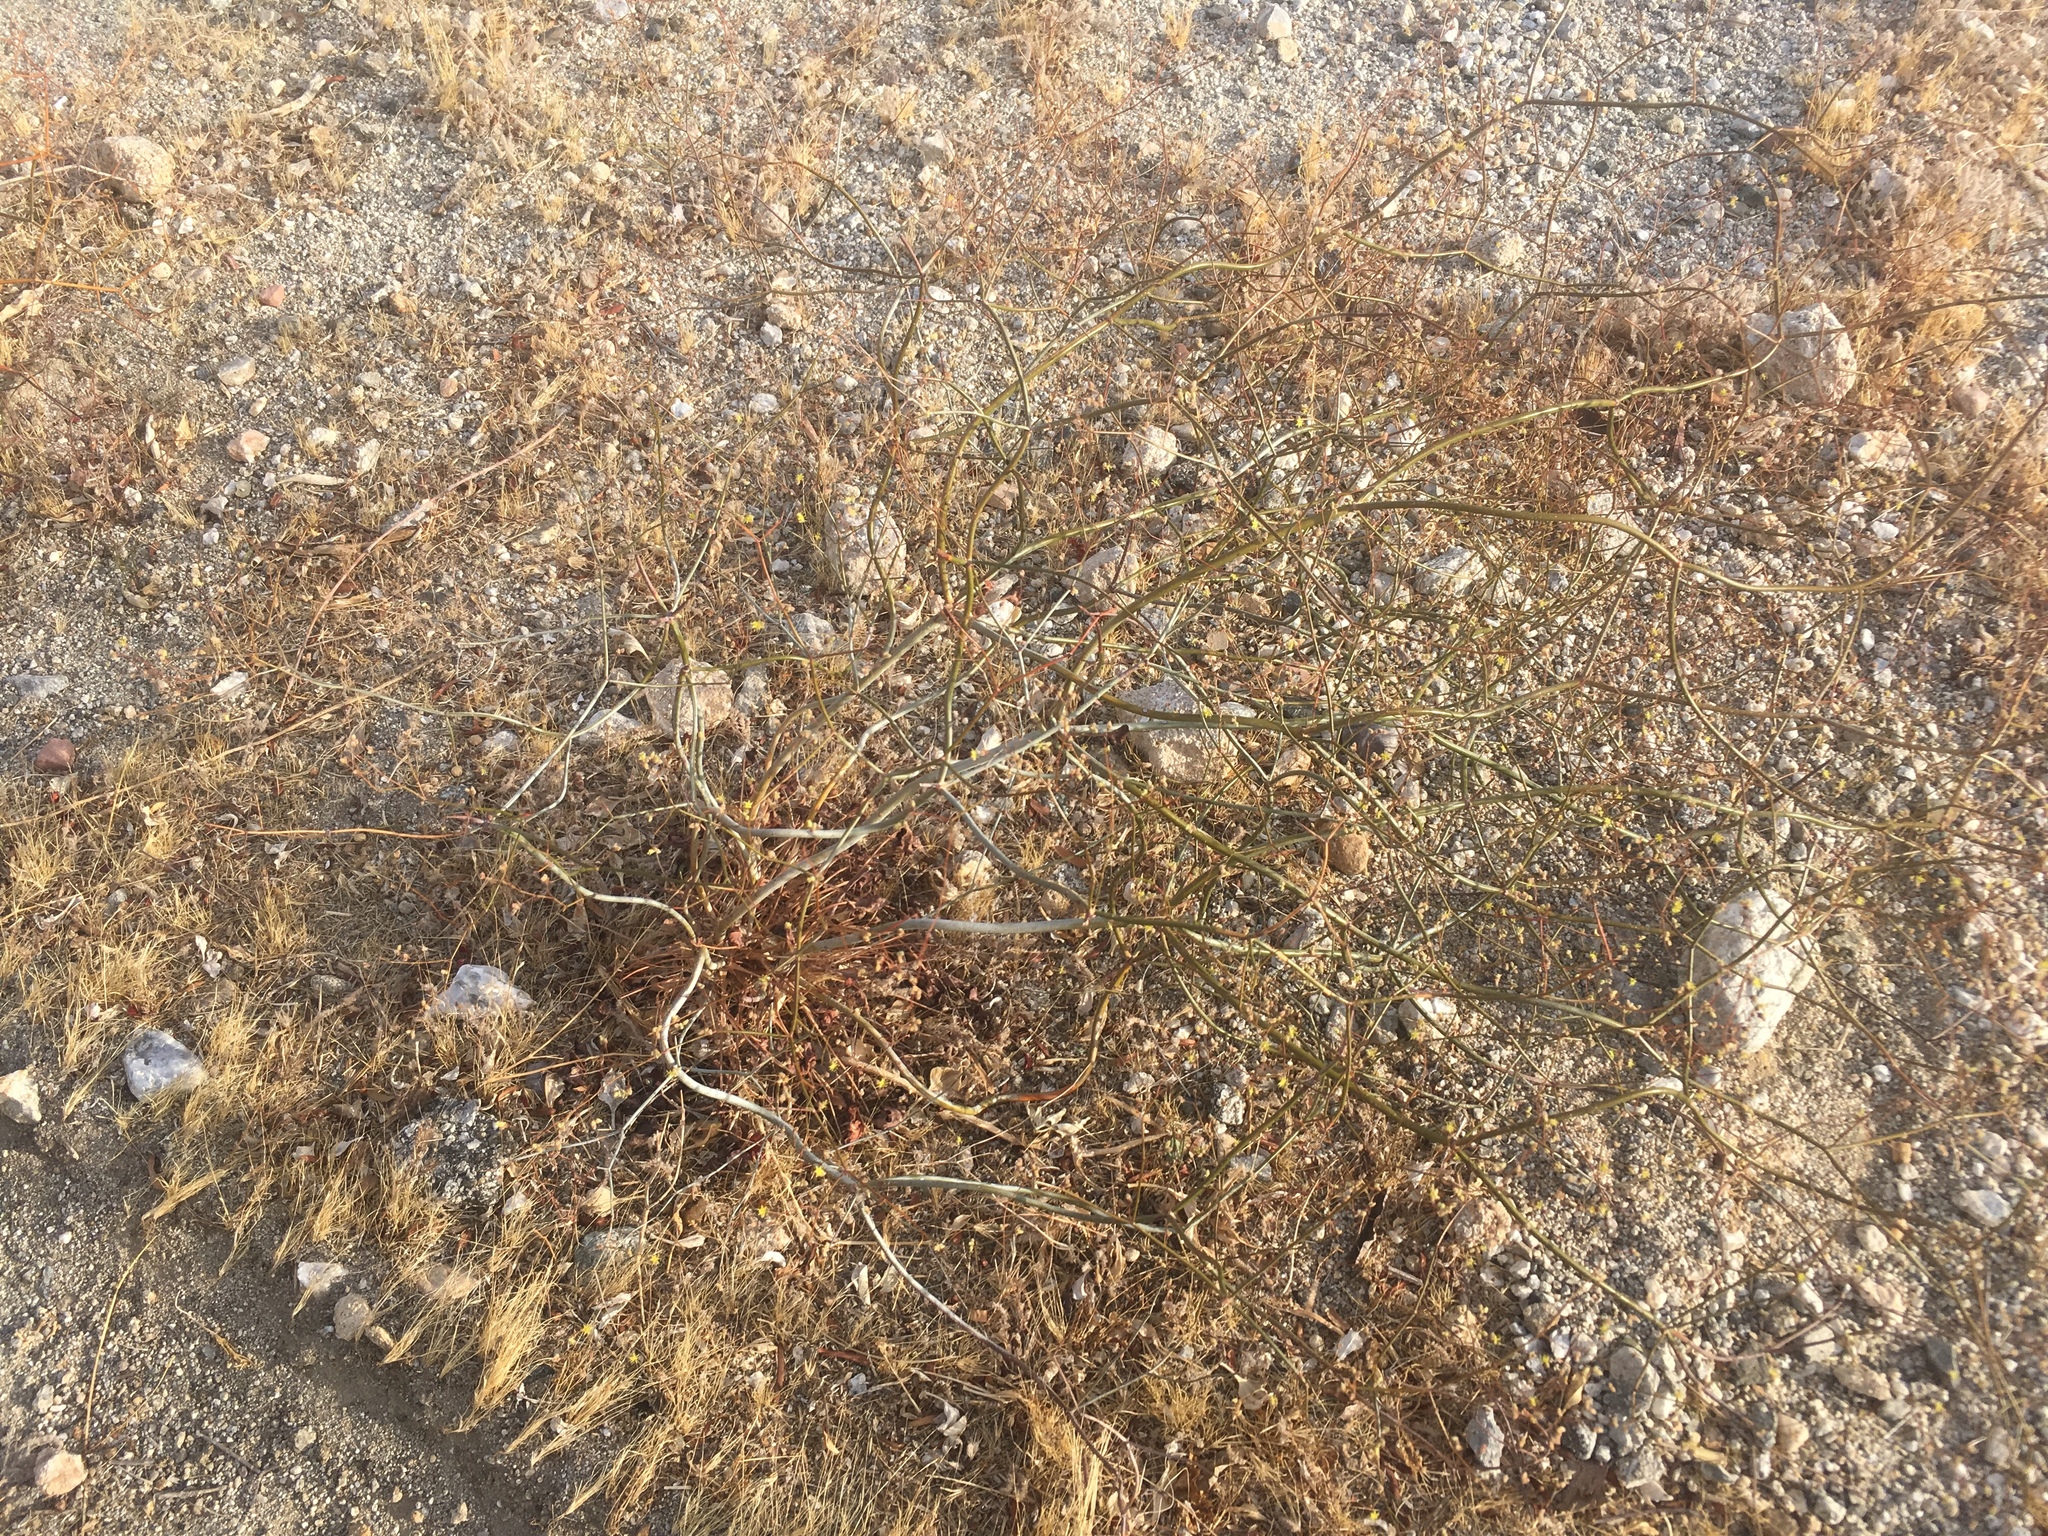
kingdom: Plantae
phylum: Tracheophyta
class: Magnoliopsida
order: Caryophyllales
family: Polygonaceae
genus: Eriogonum
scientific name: Eriogonum inflatum
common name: Desert trumpet
